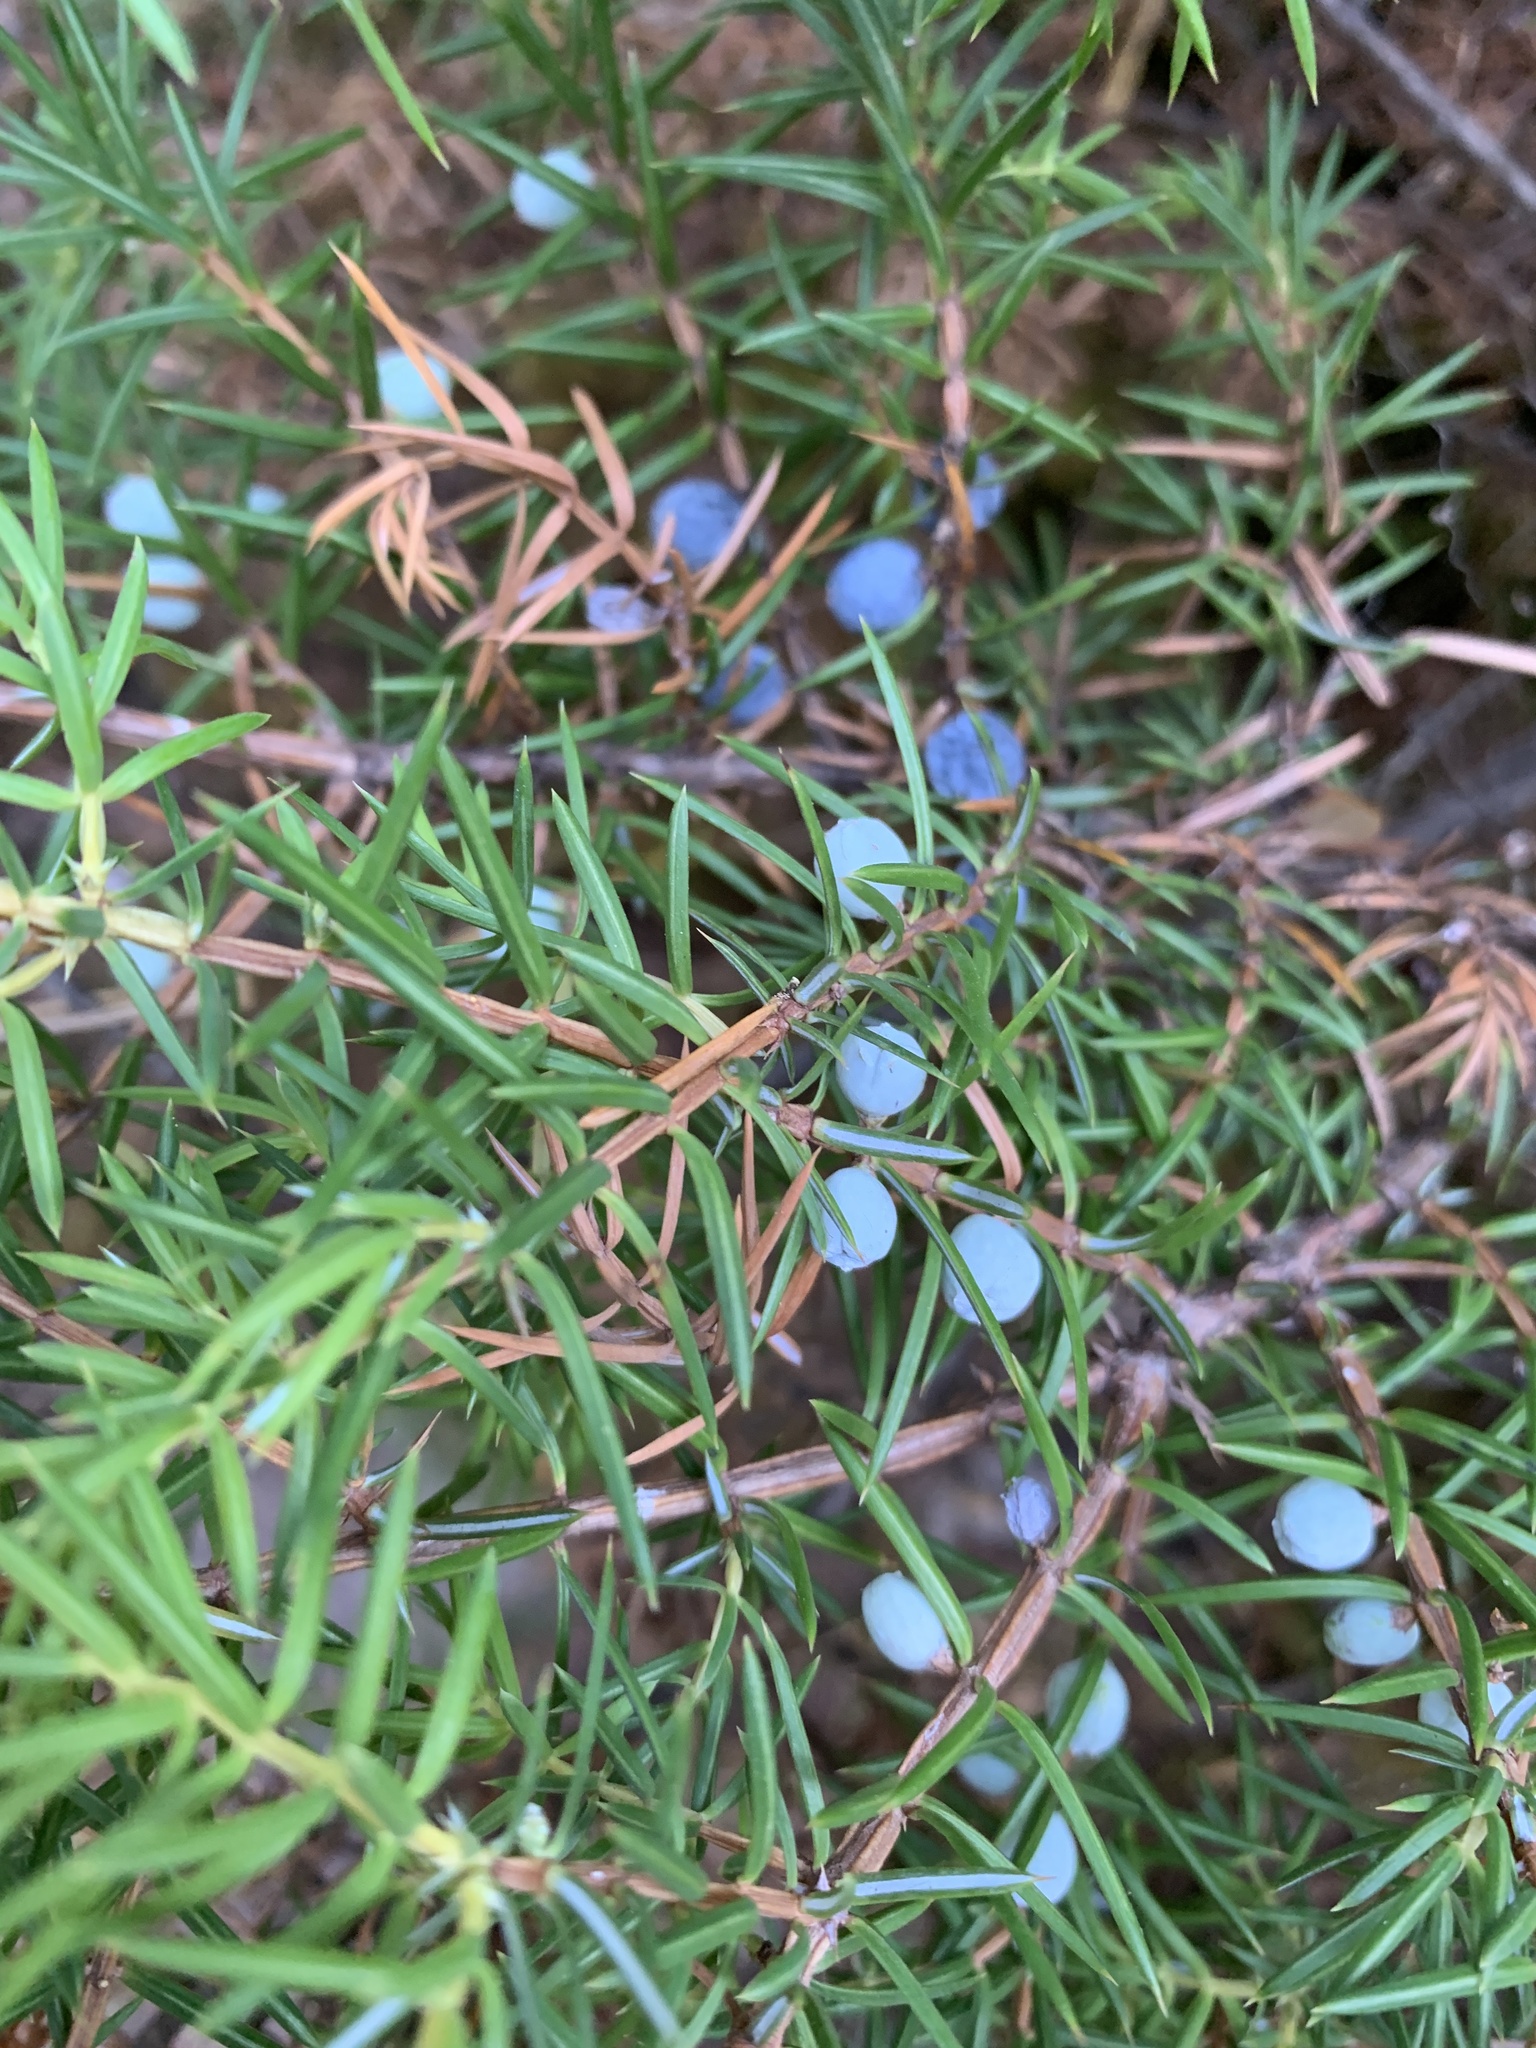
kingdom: Plantae
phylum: Tracheophyta
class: Pinopsida
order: Pinales
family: Cupressaceae
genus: Juniperus
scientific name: Juniperus communis
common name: Common juniper
